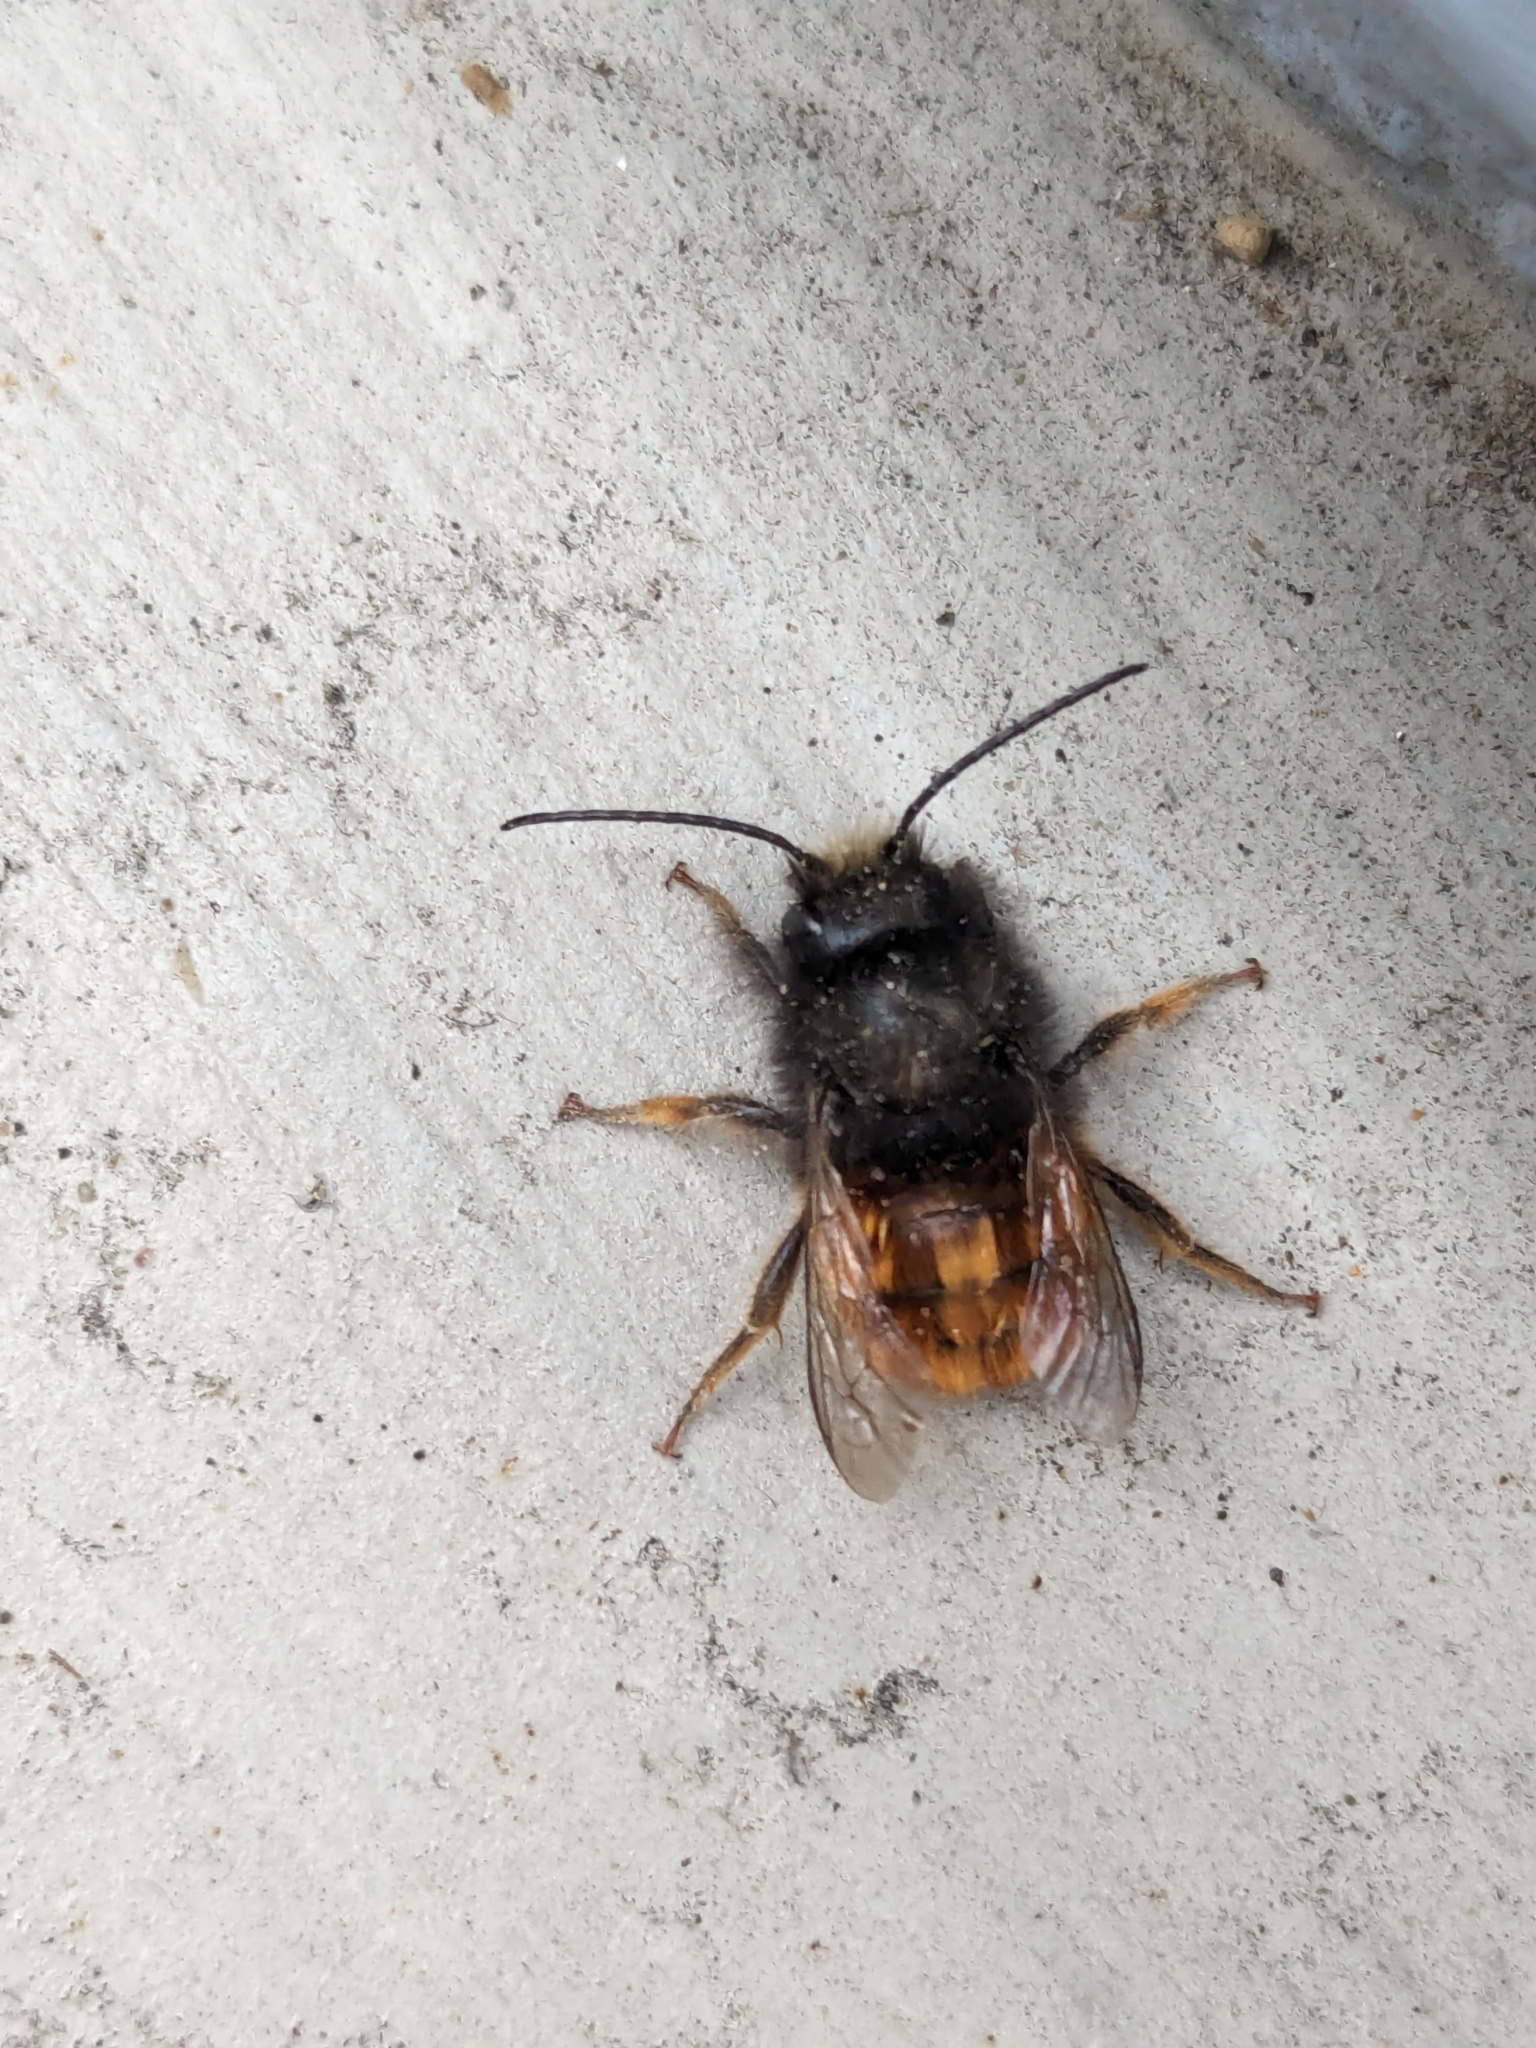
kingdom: Animalia
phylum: Arthropoda
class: Insecta
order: Hymenoptera
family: Megachilidae
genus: Osmia
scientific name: Osmia cornuta
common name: Mason bee
